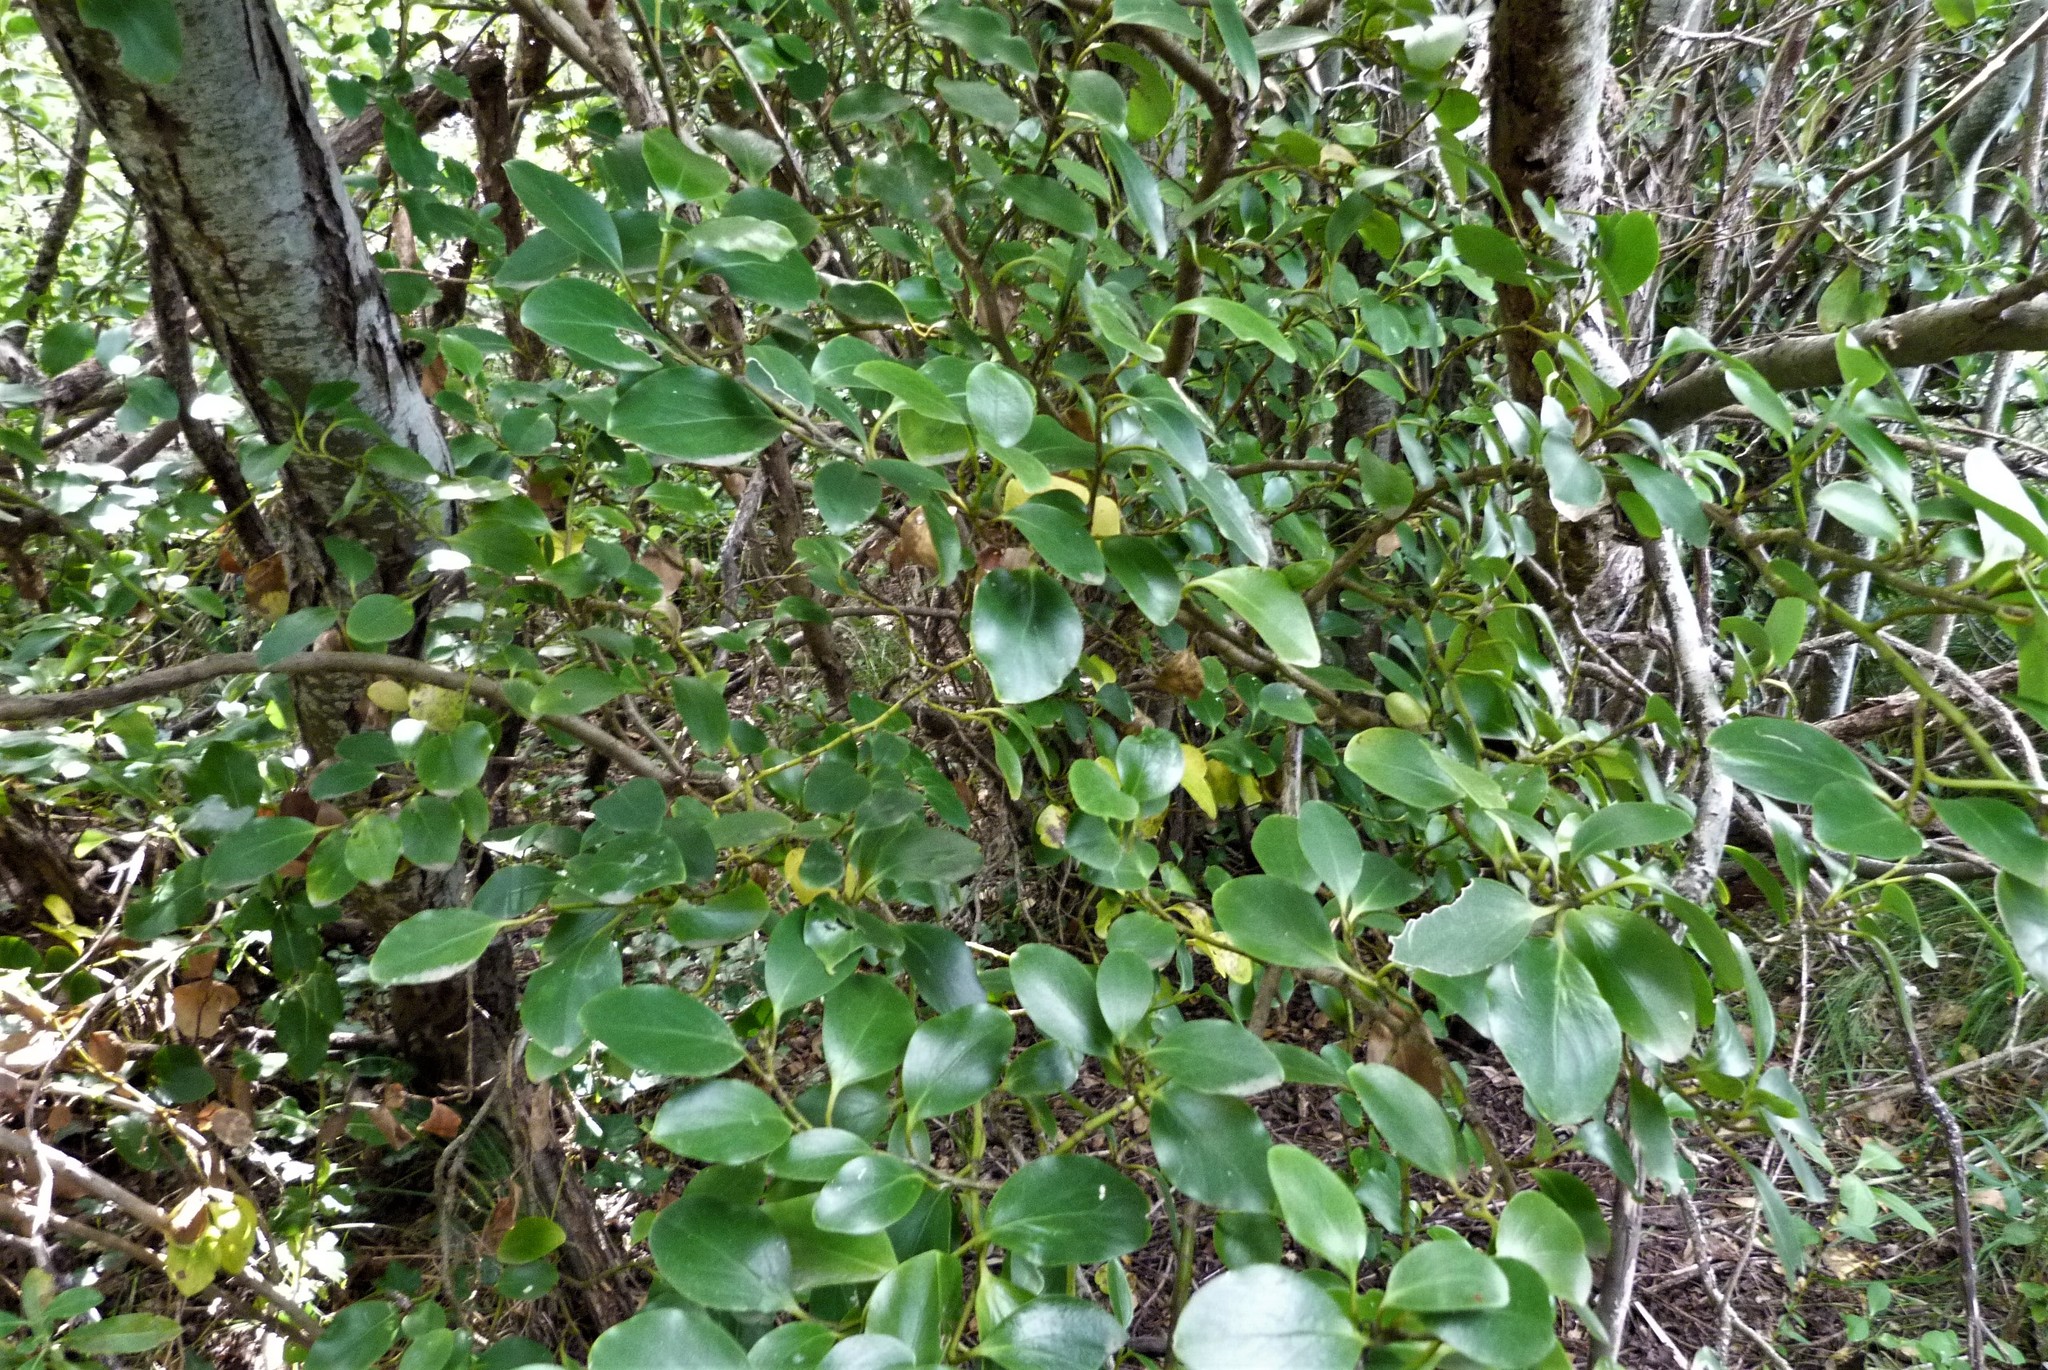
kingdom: Plantae
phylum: Tracheophyta
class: Magnoliopsida
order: Apiales
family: Griseliniaceae
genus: Griselinia
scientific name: Griselinia littoralis
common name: New zealand broadleaf
